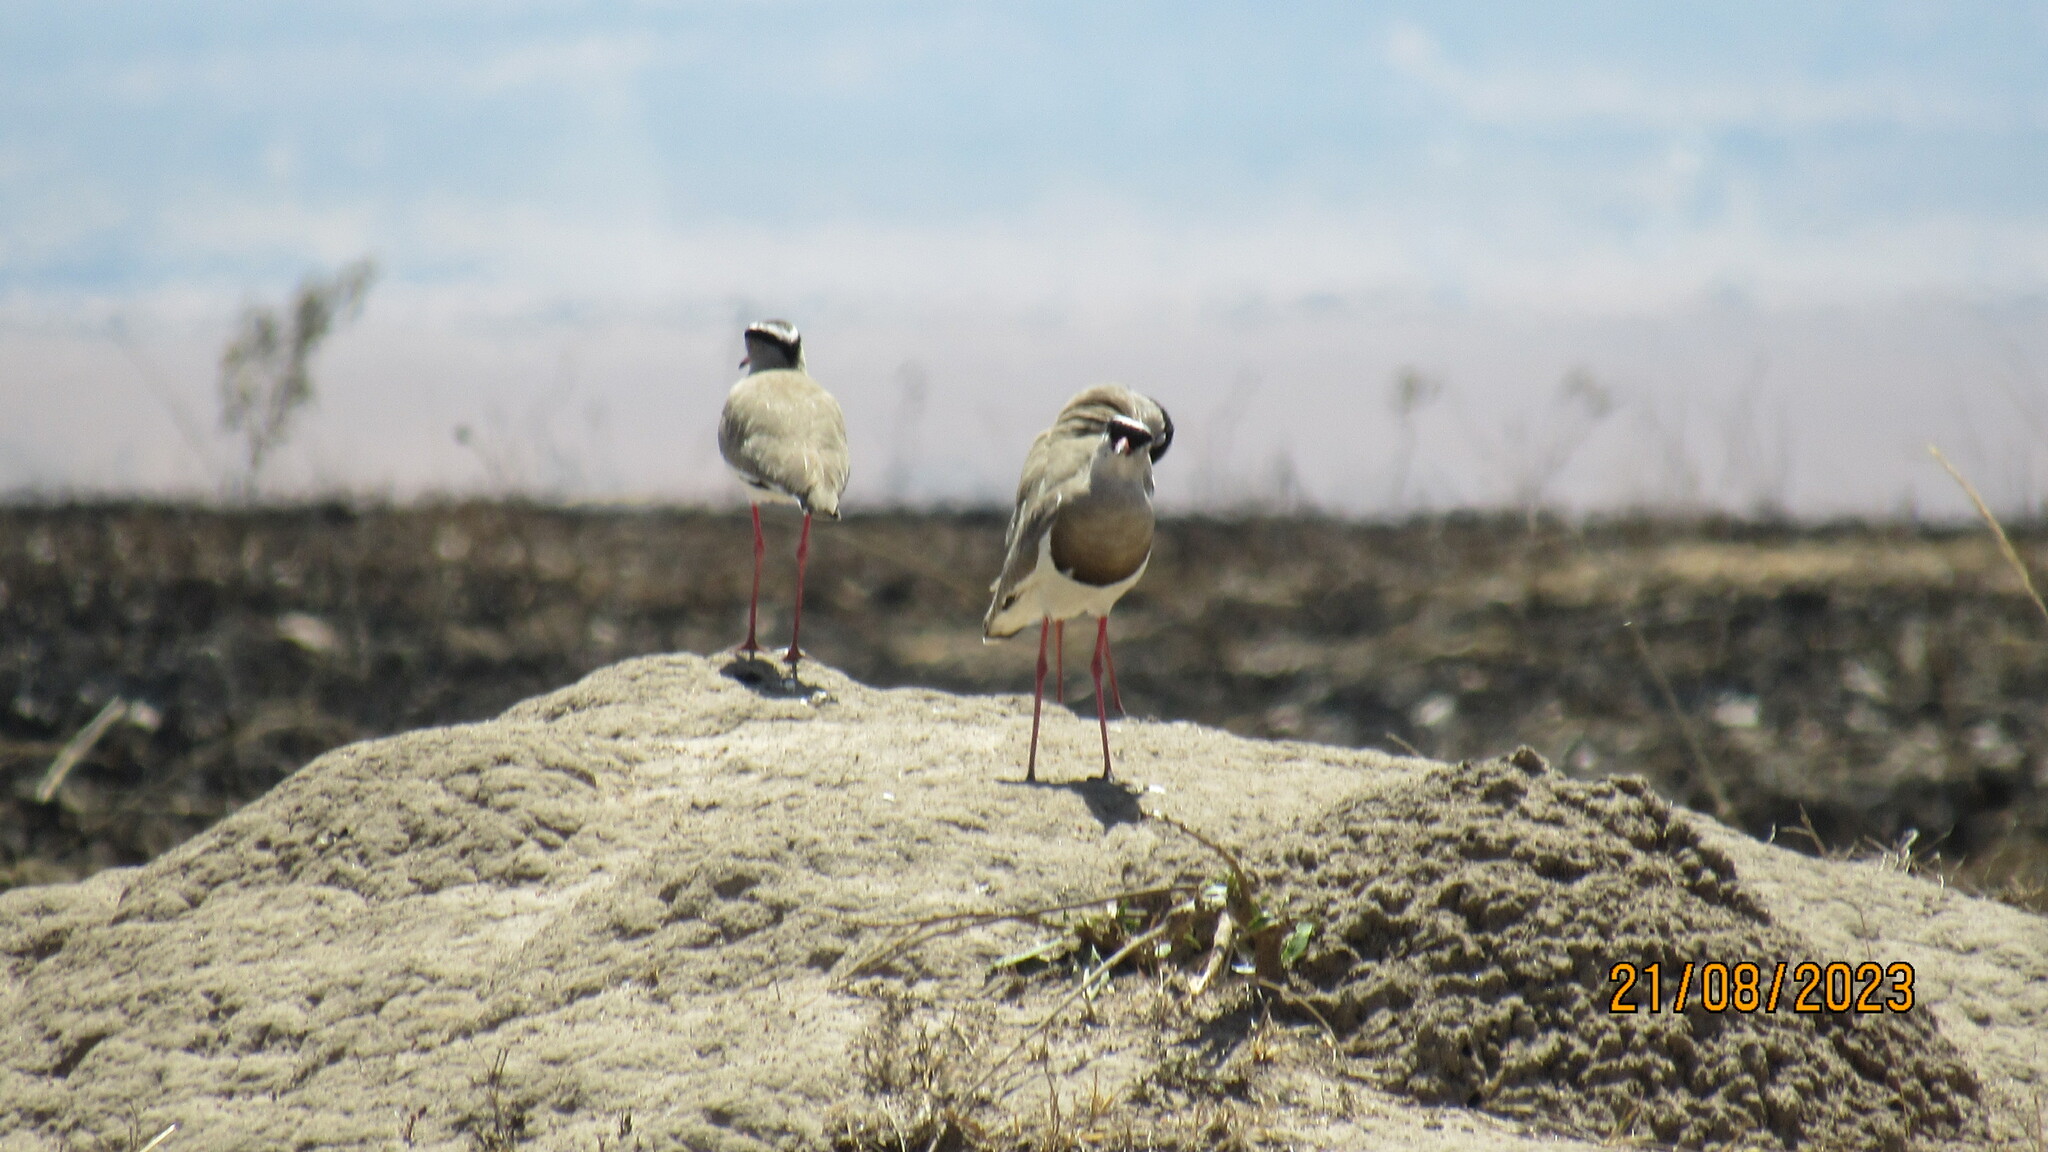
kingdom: Animalia
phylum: Chordata
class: Aves
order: Charadriiformes
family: Charadriidae
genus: Vanellus
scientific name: Vanellus coronatus
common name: Crowned lapwing
